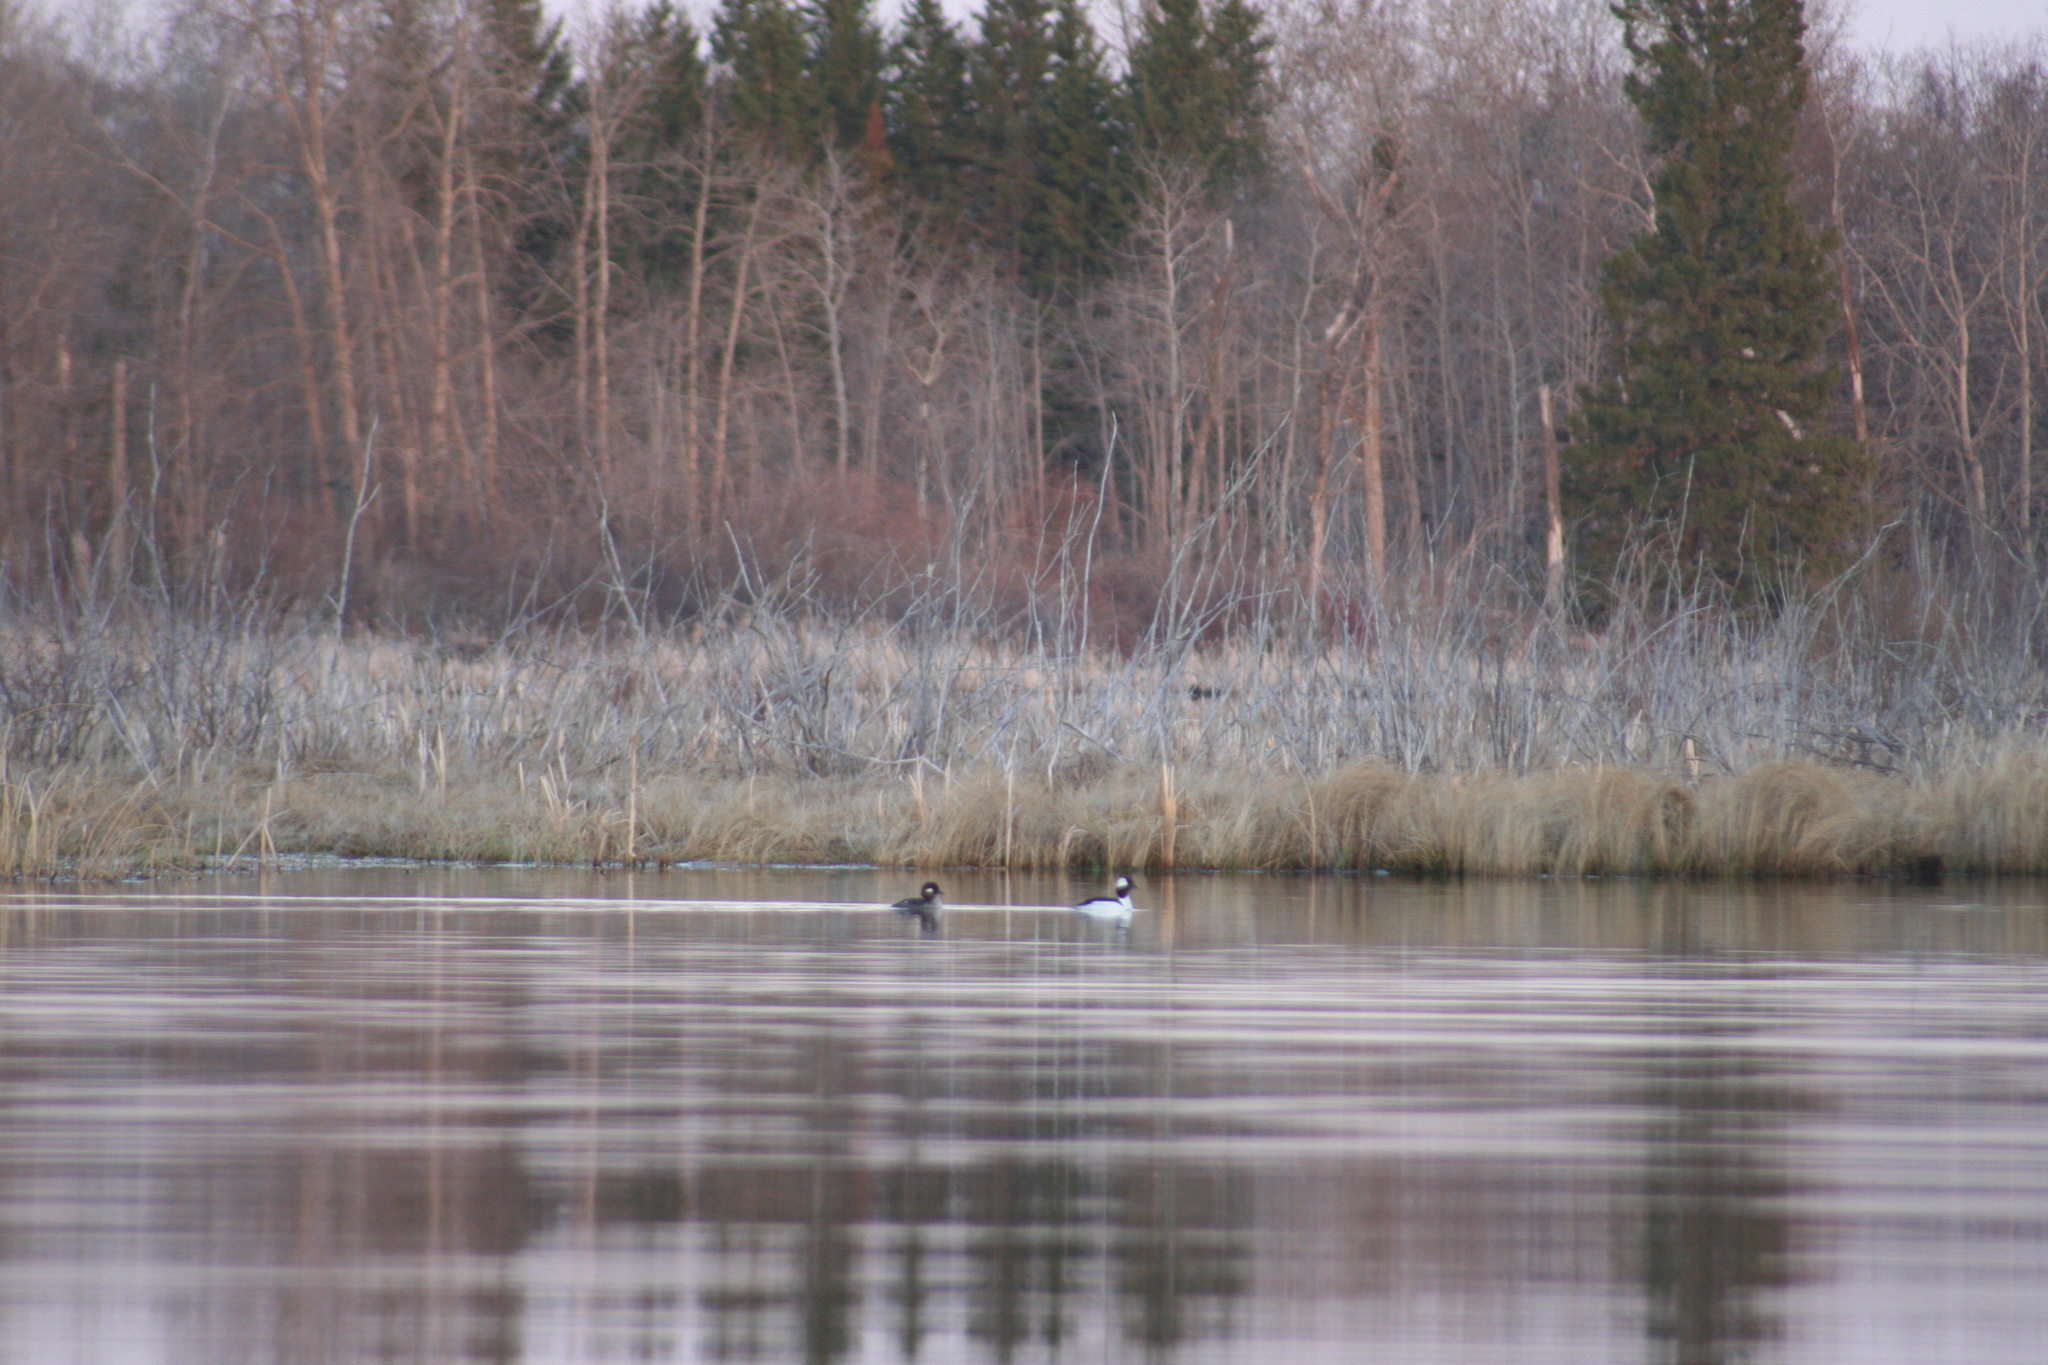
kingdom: Animalia
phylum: Chordata
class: Aves
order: Anseriformes
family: Anatidae
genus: Bucephala
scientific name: Bucephala albeola
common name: Bufflehead
